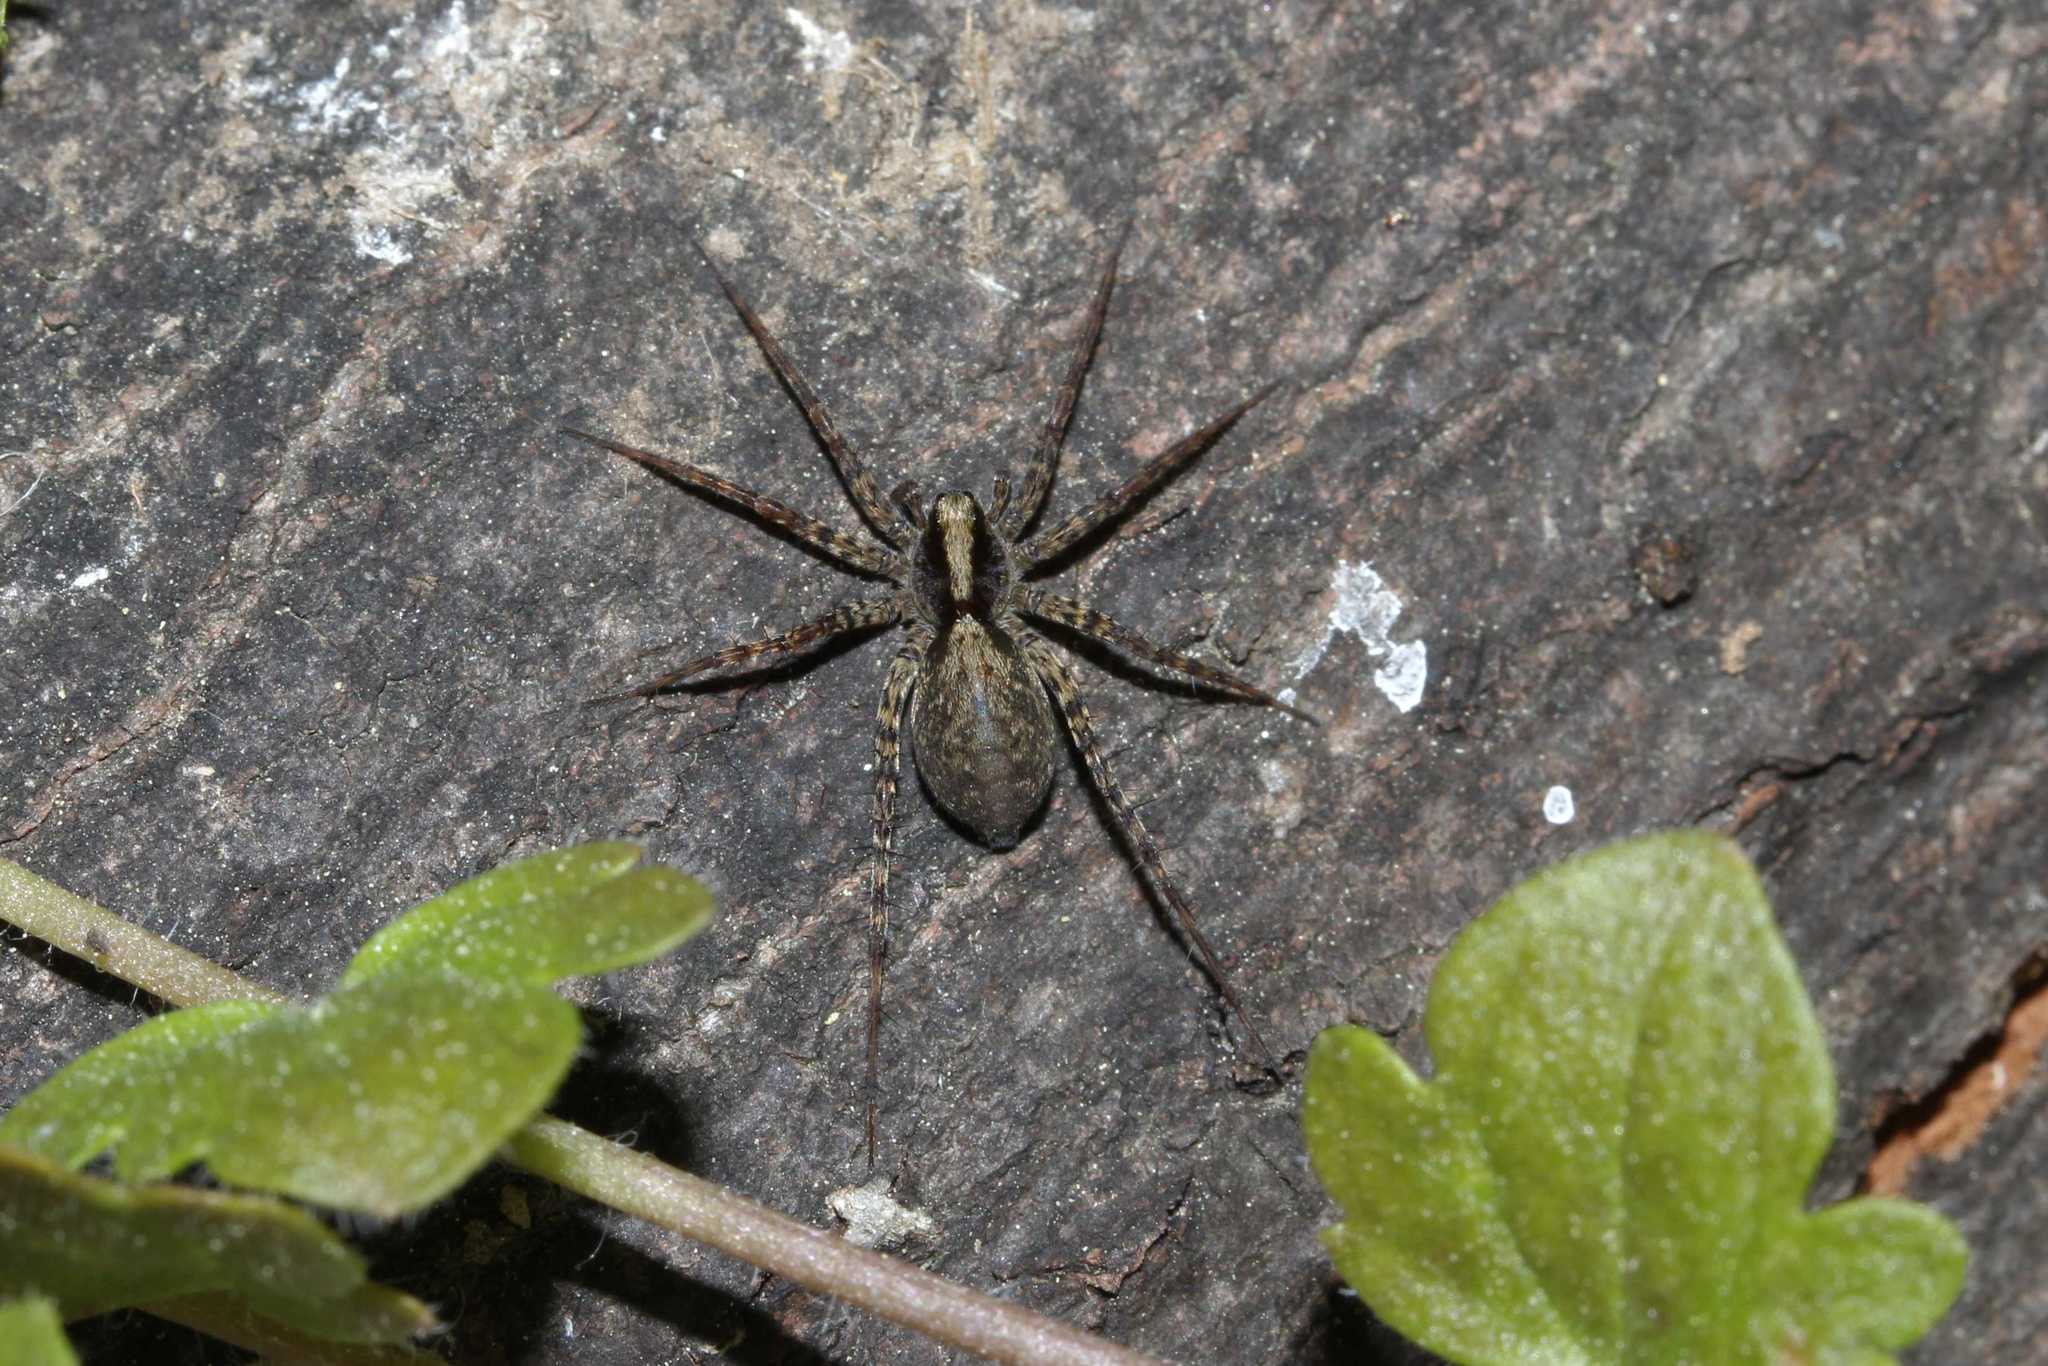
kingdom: Animalia
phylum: Arthropoda
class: Arachnida
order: Araneae
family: Lycosidae
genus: Pardosa
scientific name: Pardosa
